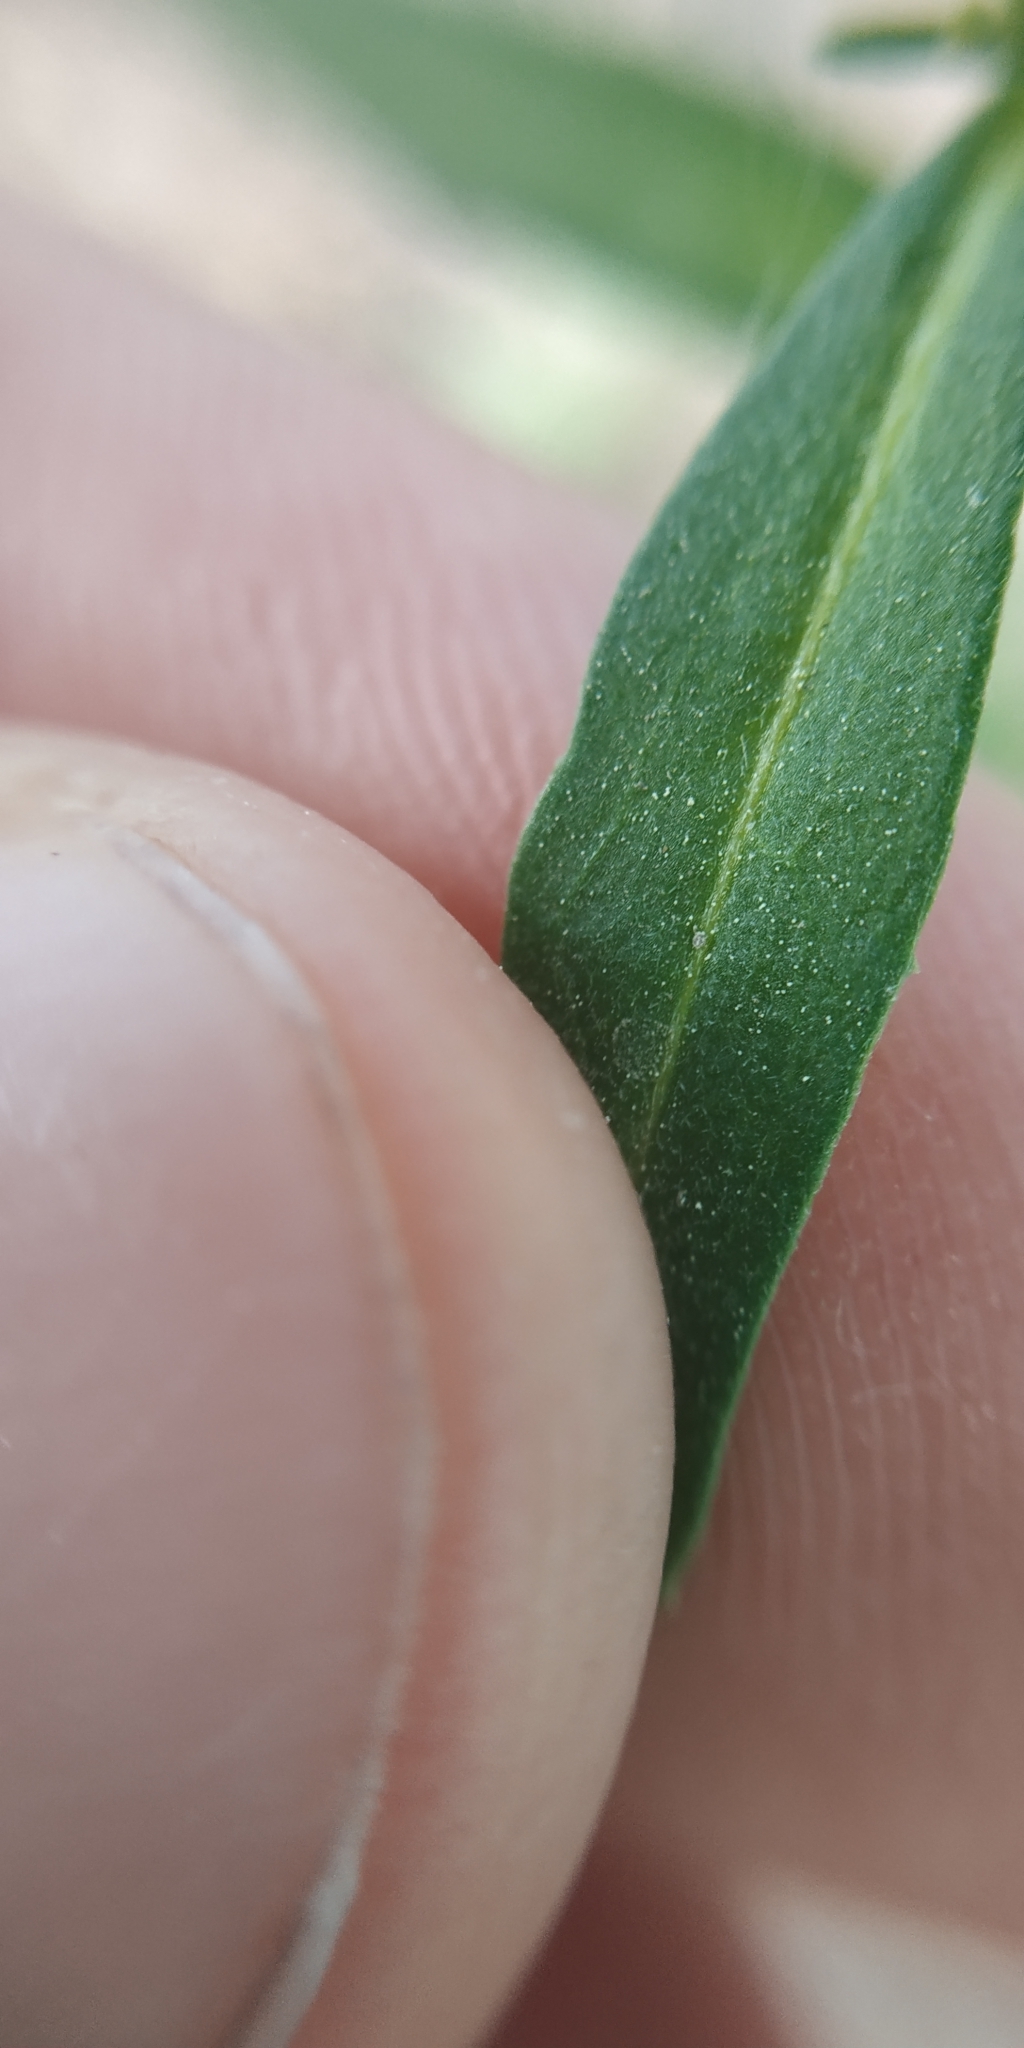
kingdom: Plantae
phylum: Tracheophyta
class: Magnoliopsida
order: Brassicales
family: Brassicaceae
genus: Erysimum
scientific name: Erysimum cheiranthoides
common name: Treacle mustard
